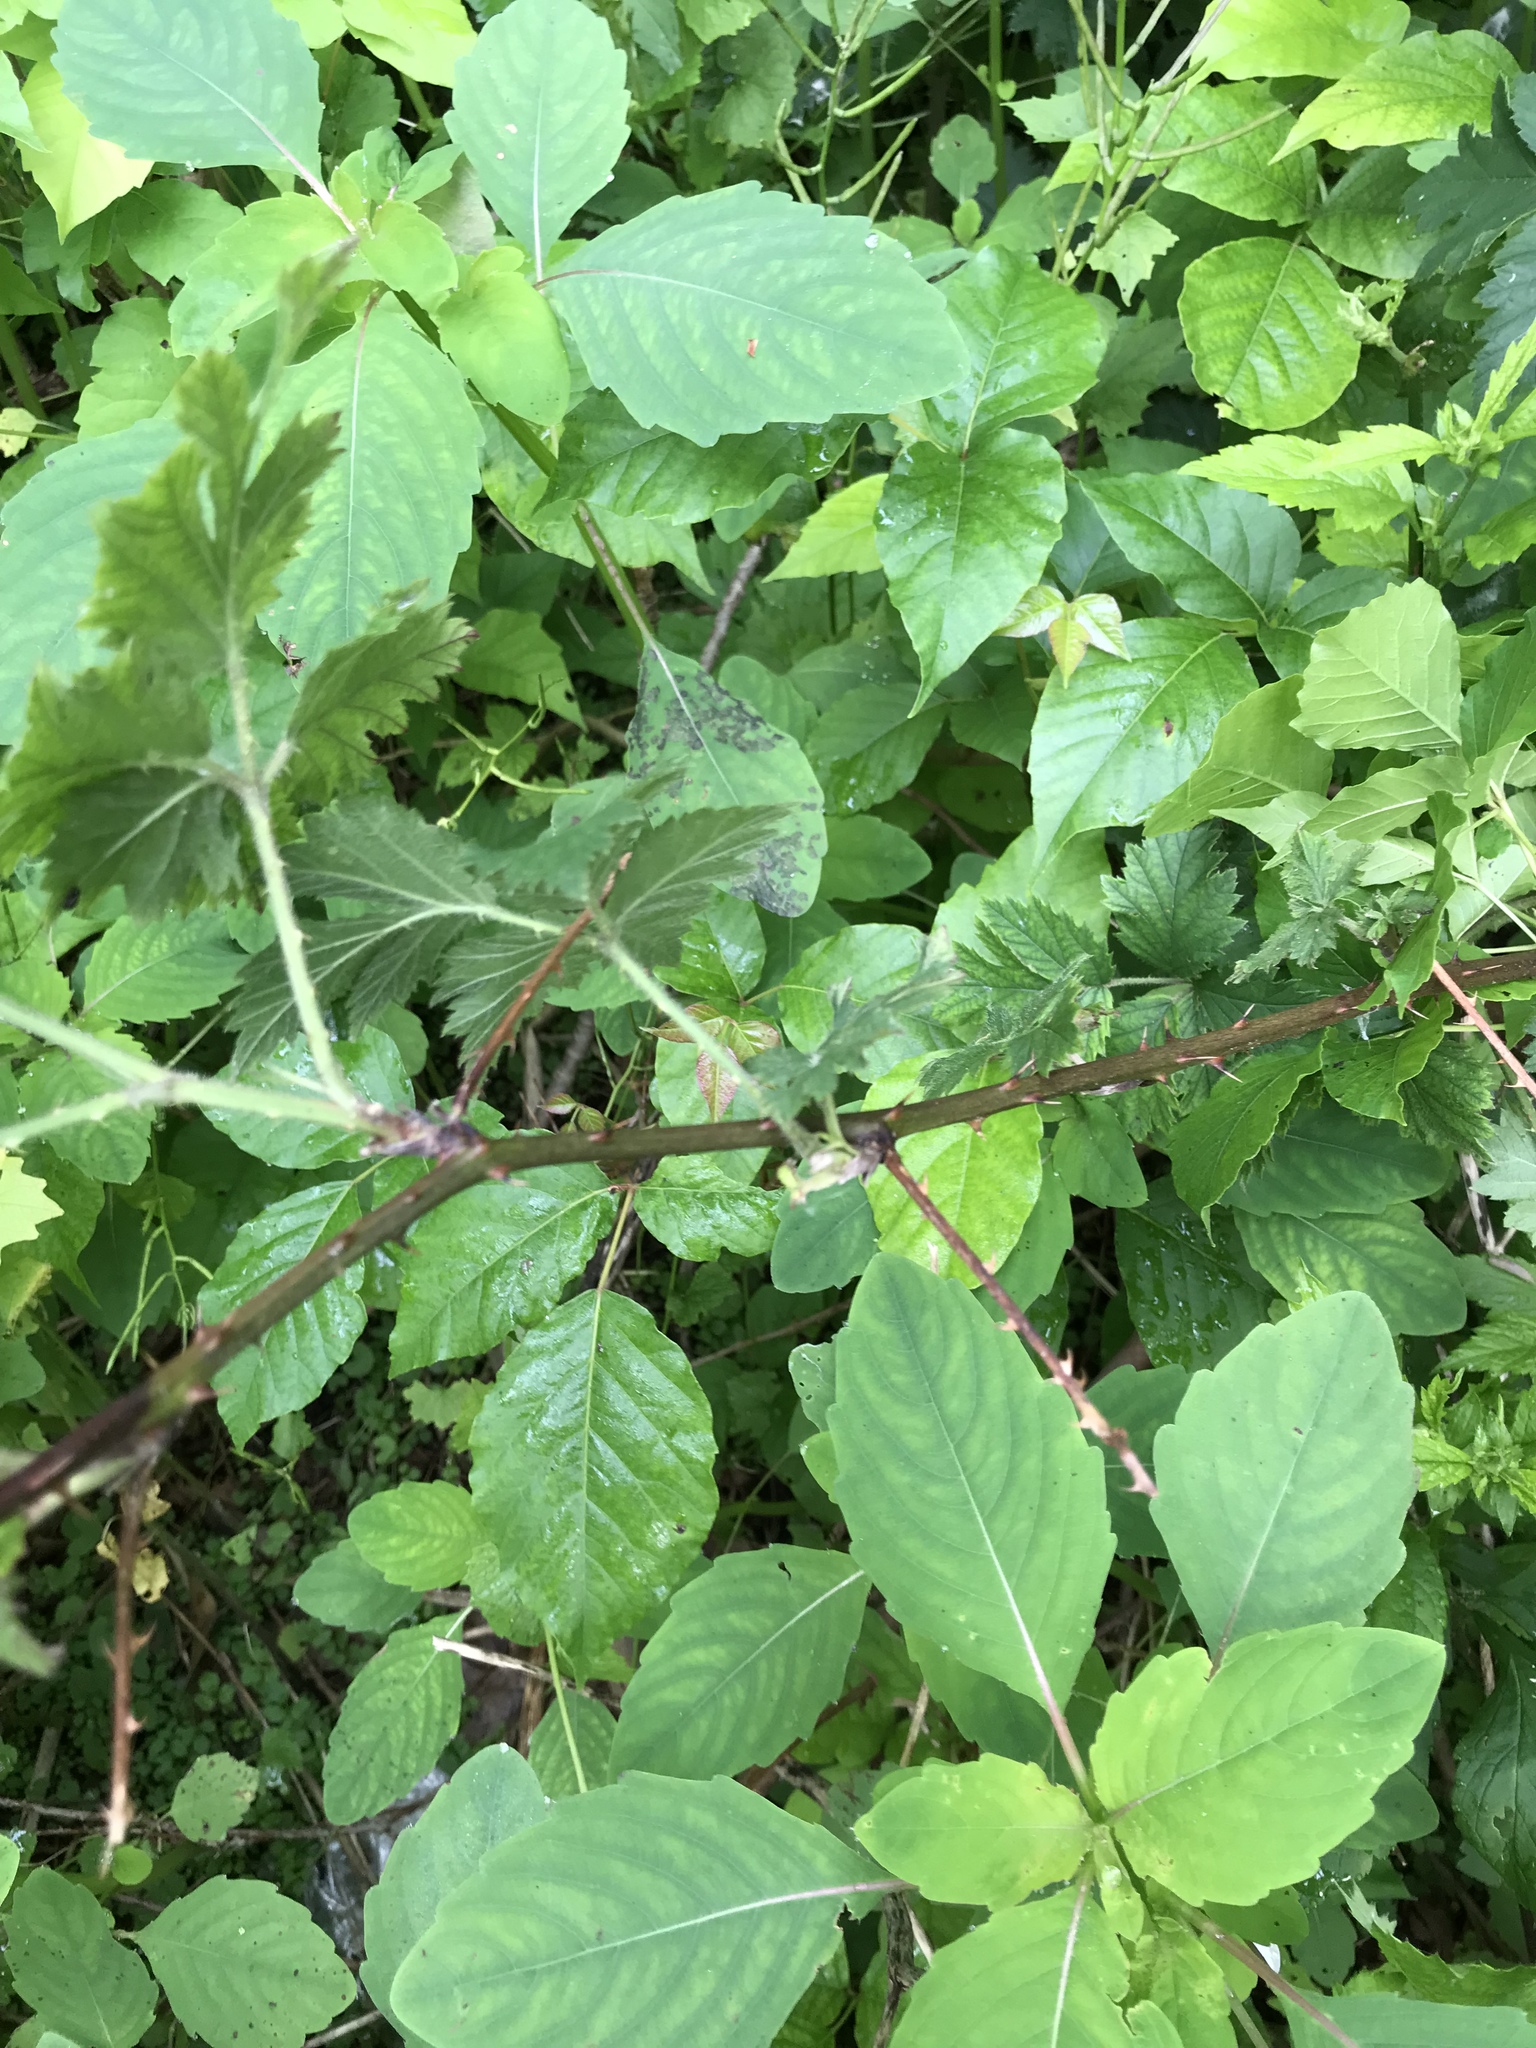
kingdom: Plantae
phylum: Tracheophyta
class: Magnoliopsida
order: Rosales
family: Rosaceae
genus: Rubus
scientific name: Rubus laciniatus
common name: Evergreen blackberry
